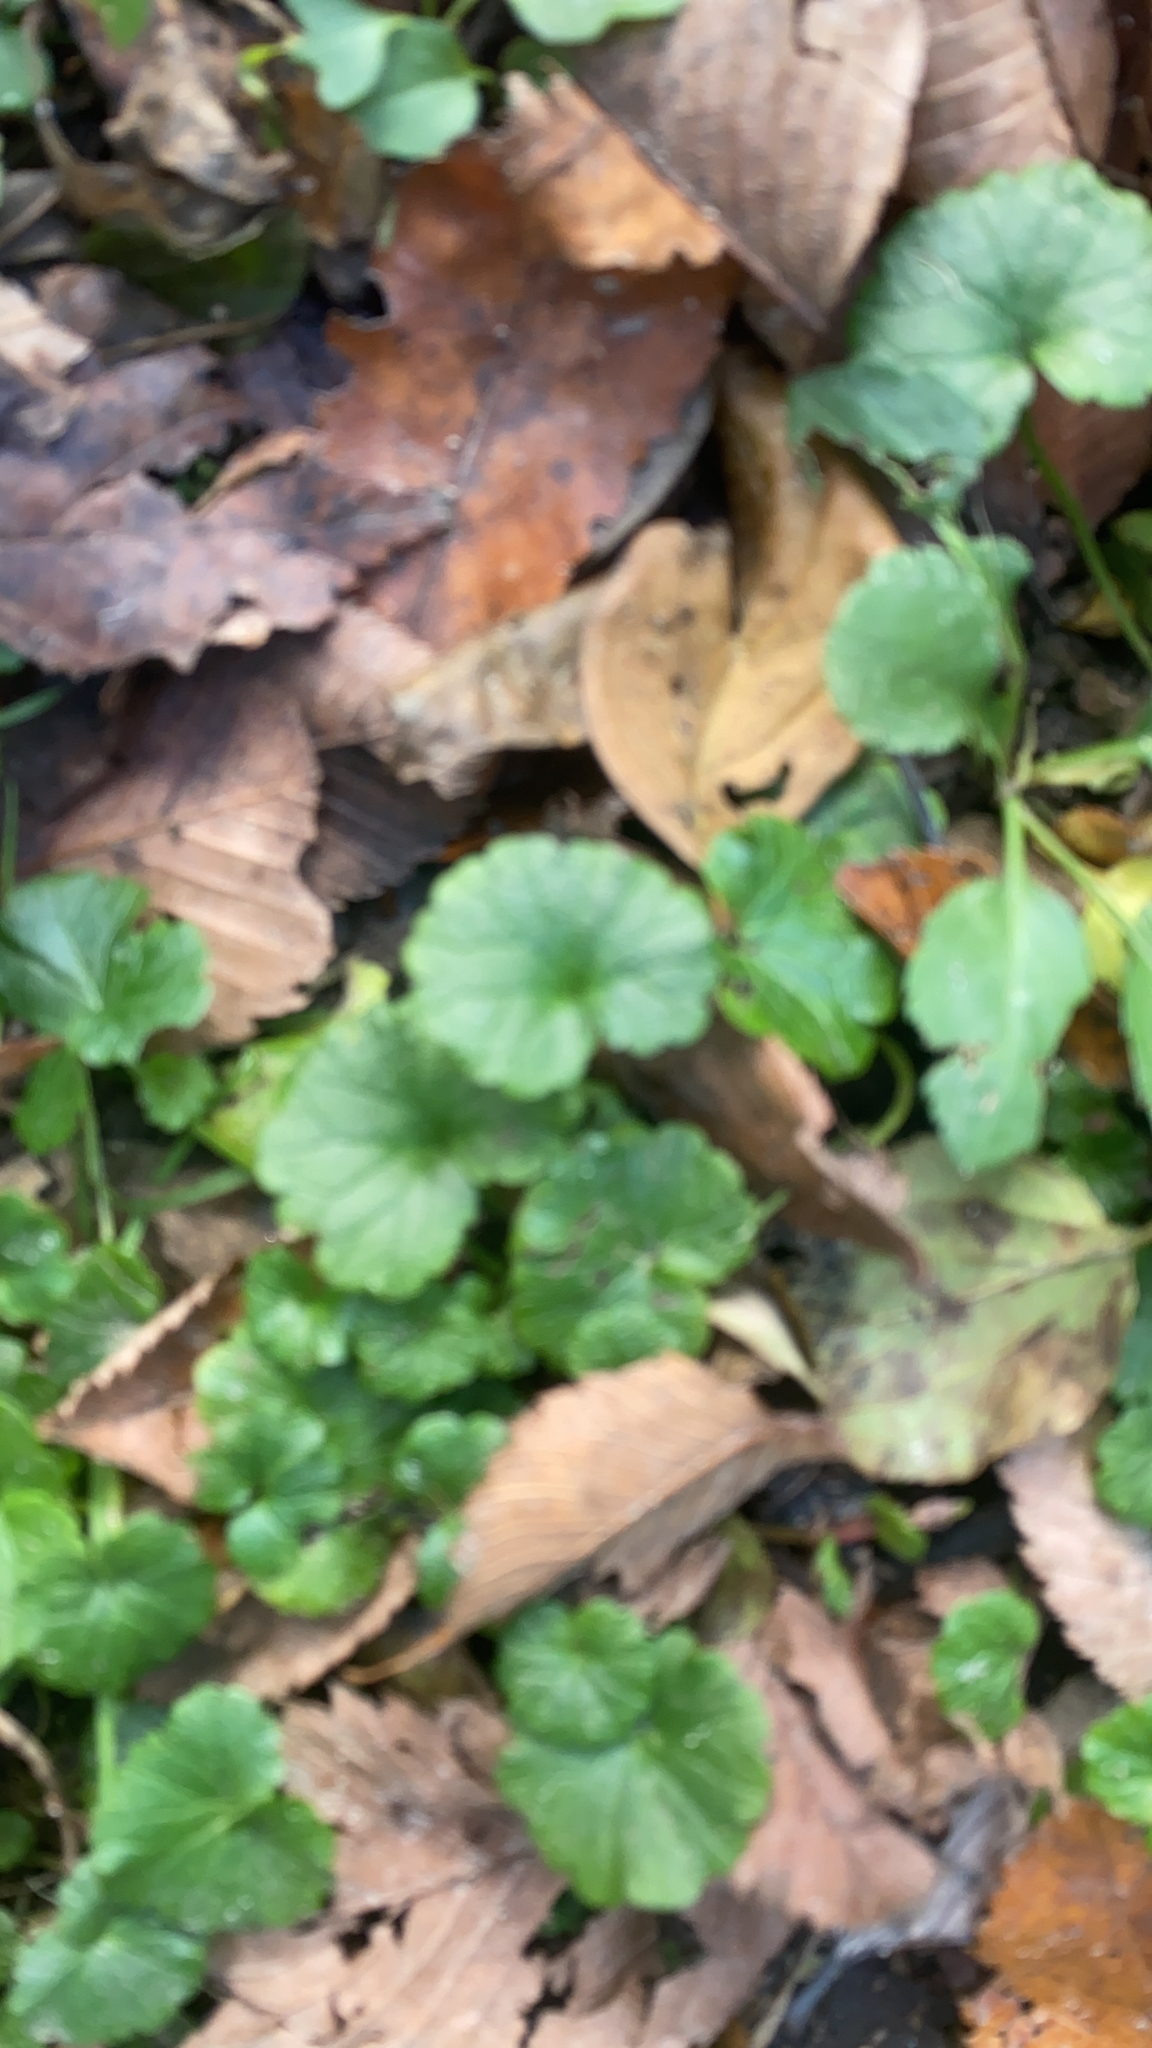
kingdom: Plantae
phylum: Tracheophyta
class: Magnoliopsida
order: Lamiales
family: Lamiaceae
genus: Glechoma
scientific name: Glechoma hederacea
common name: Ground ivy
